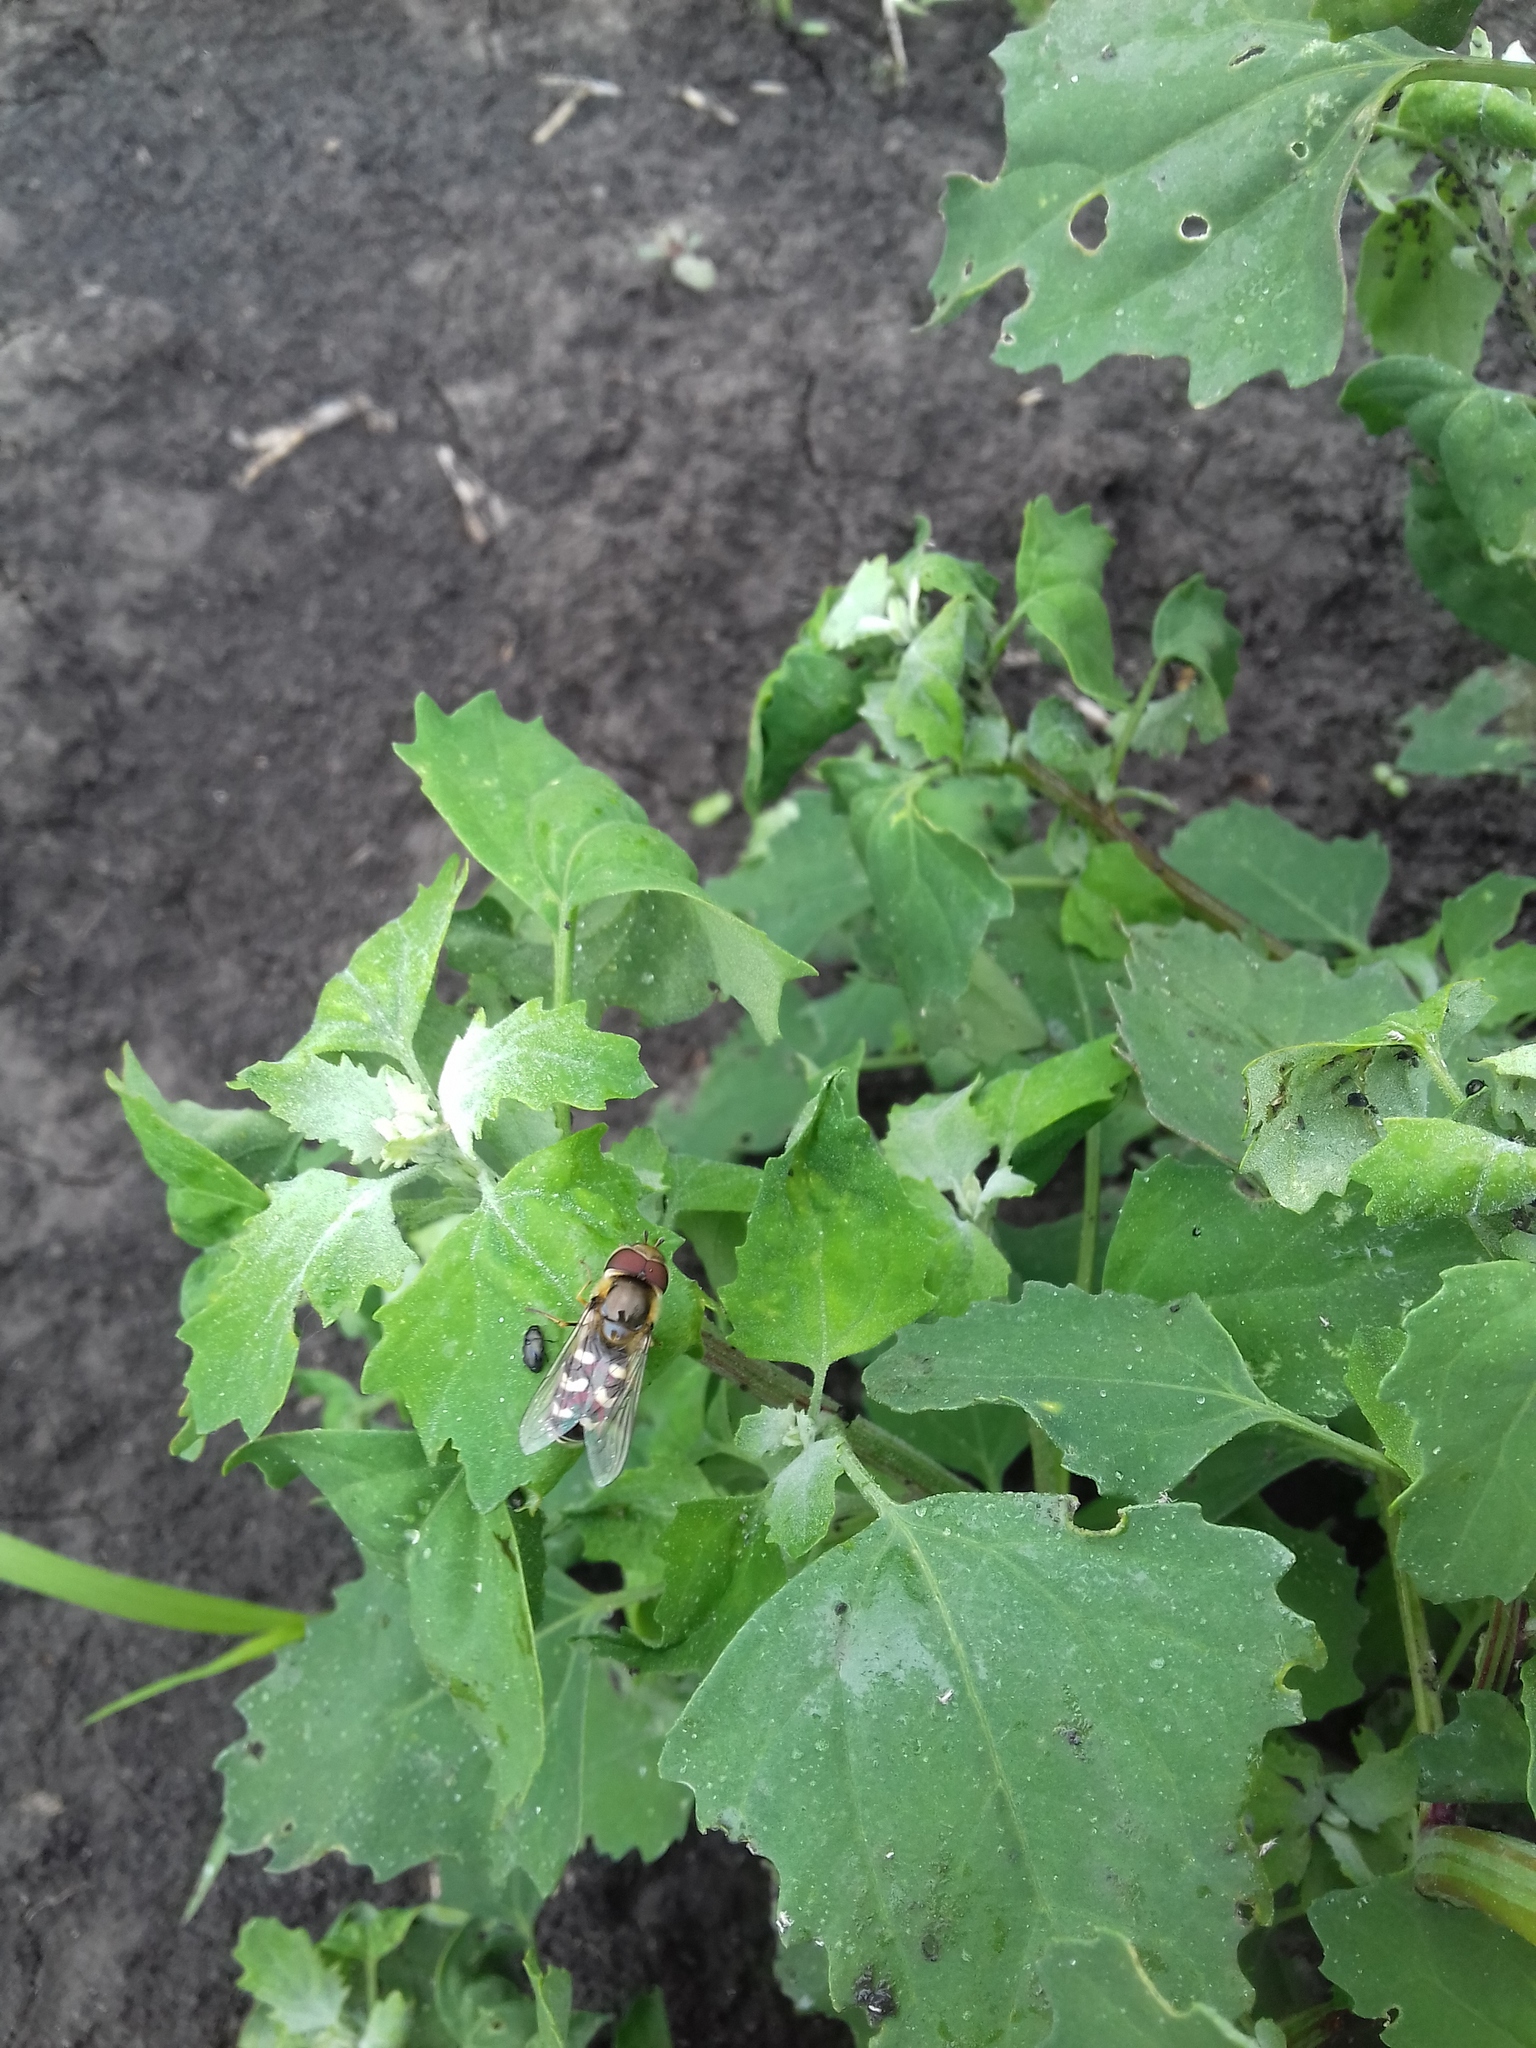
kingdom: Animalia
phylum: Arthropoda
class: Insecta
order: Diptera
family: Syrphidae
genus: Scaeva
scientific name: Scaeva pyrastri
